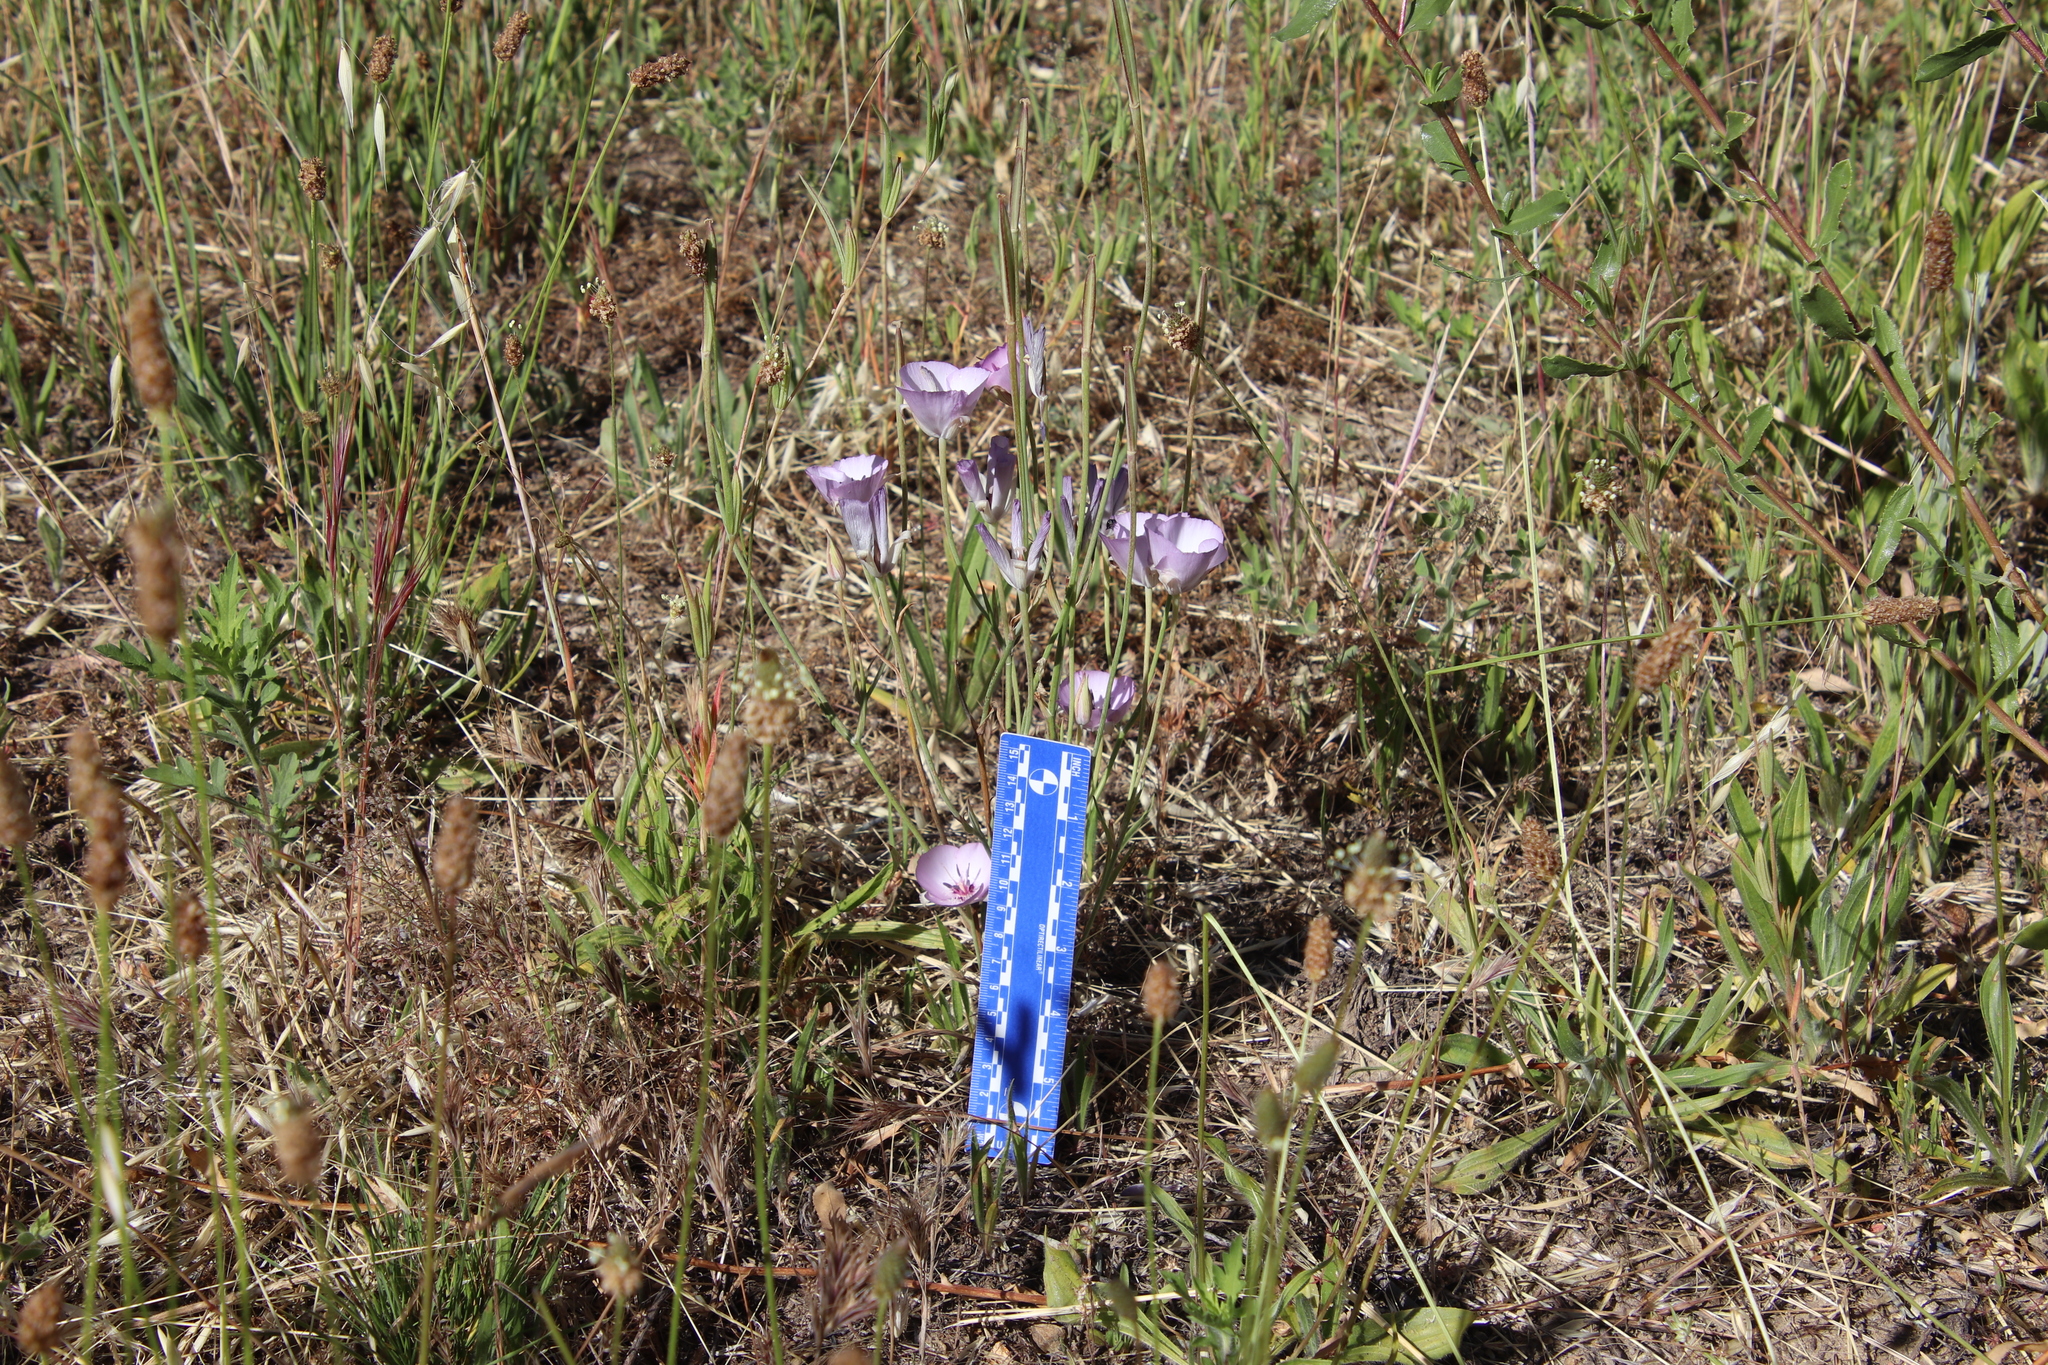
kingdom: Plantae
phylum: Tracheophyta
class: Liliopsida
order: Liliales
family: Liliaceae
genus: Calochortus
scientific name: Calochortus splendens
